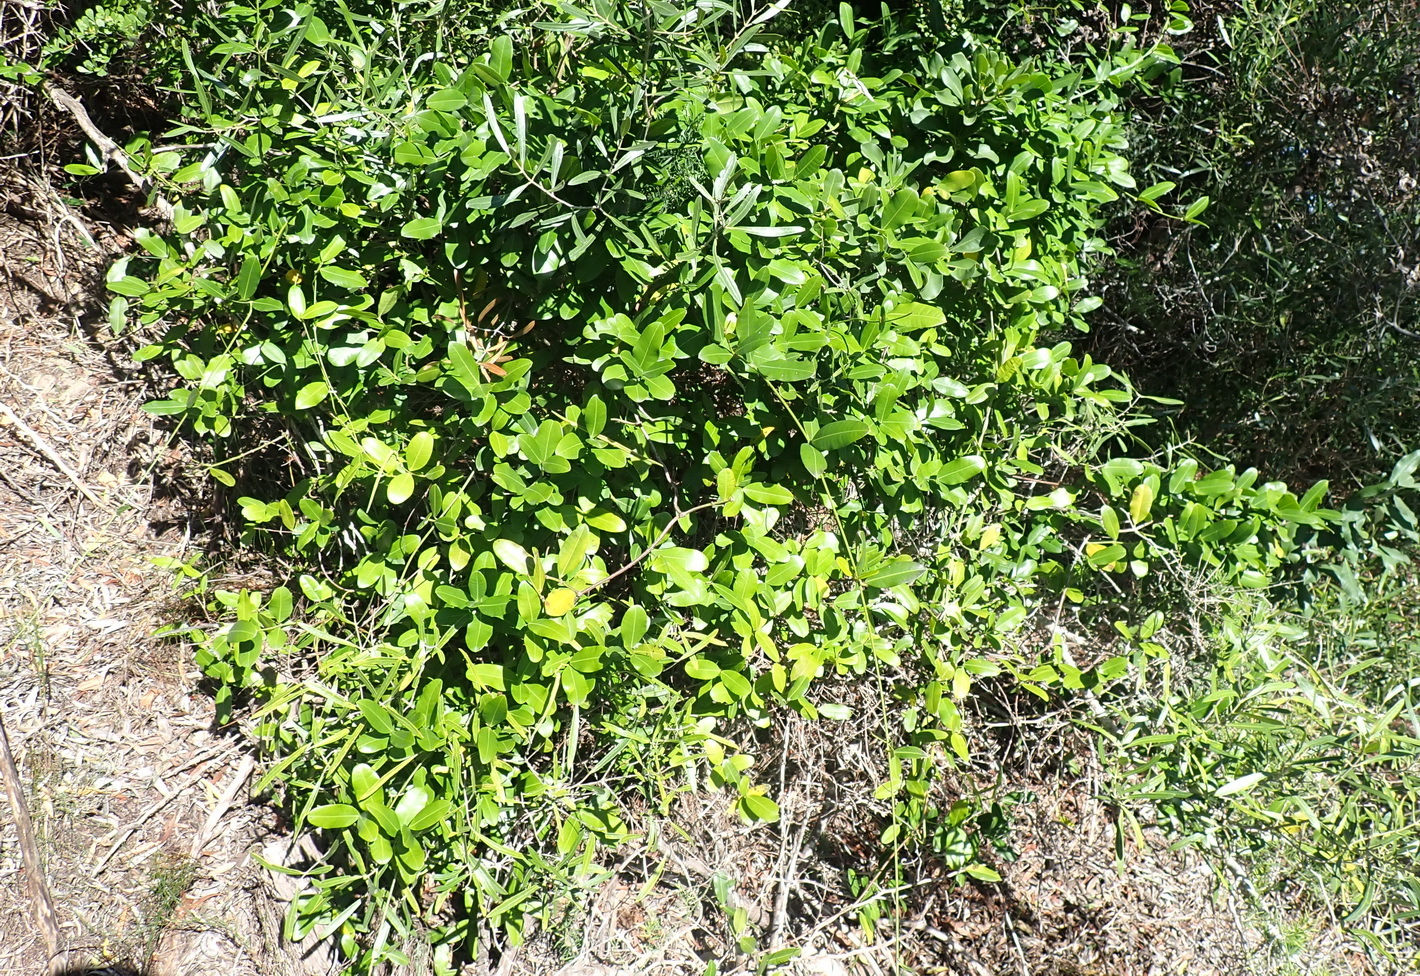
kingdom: Plantae
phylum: Tracheophyta
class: Magnoliopsida
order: Gentianales
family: Apocynaceae
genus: Secamone
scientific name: Secamone alpini
